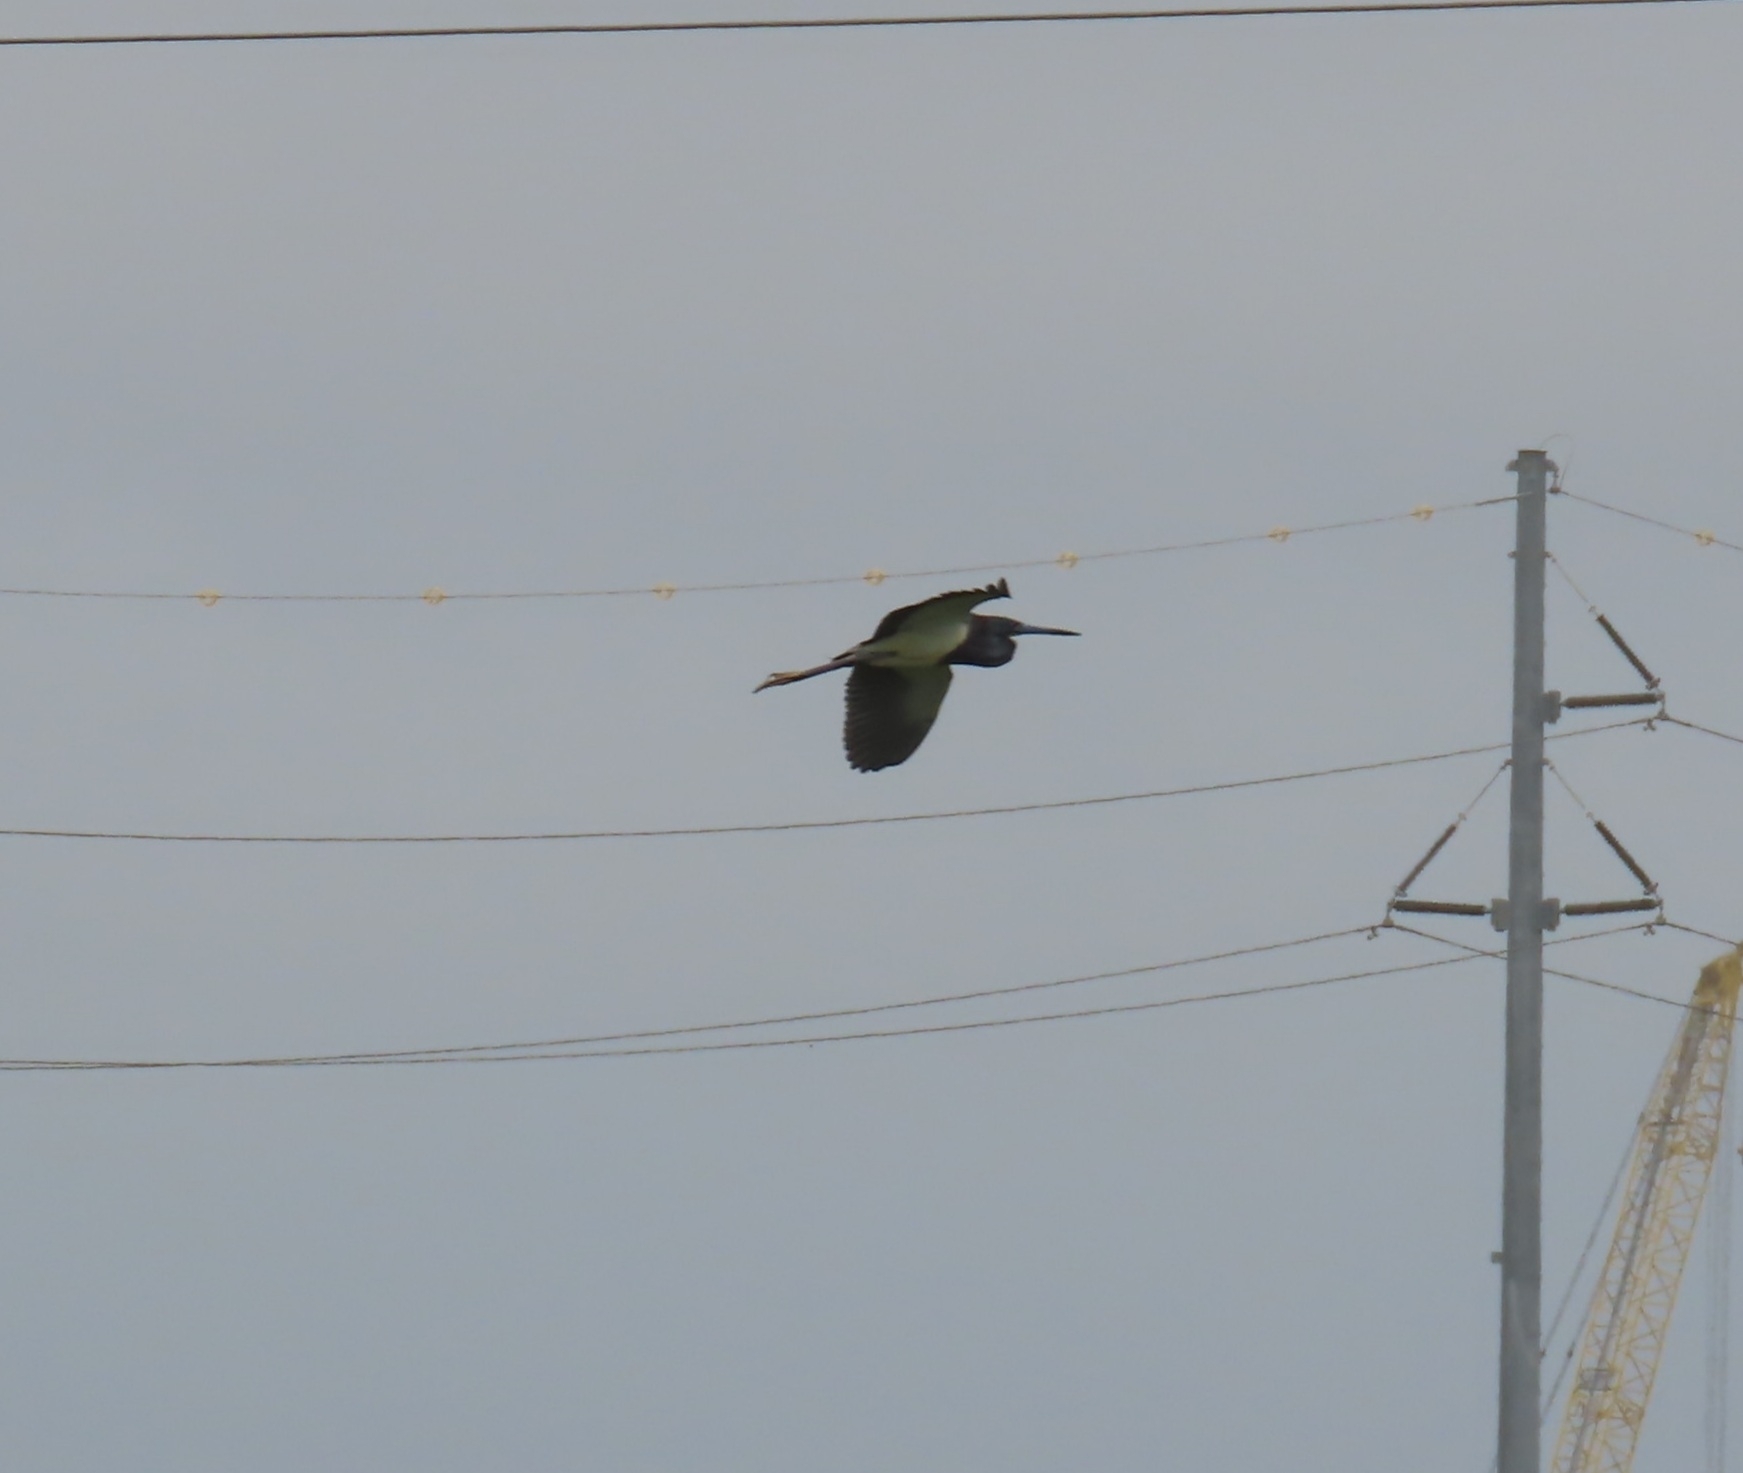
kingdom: Animalia
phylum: Chordata
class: Aves
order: Pelecaniformes
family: Ardeidae
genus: Egretta
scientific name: Egretta tricolor
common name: Tricolored heron
